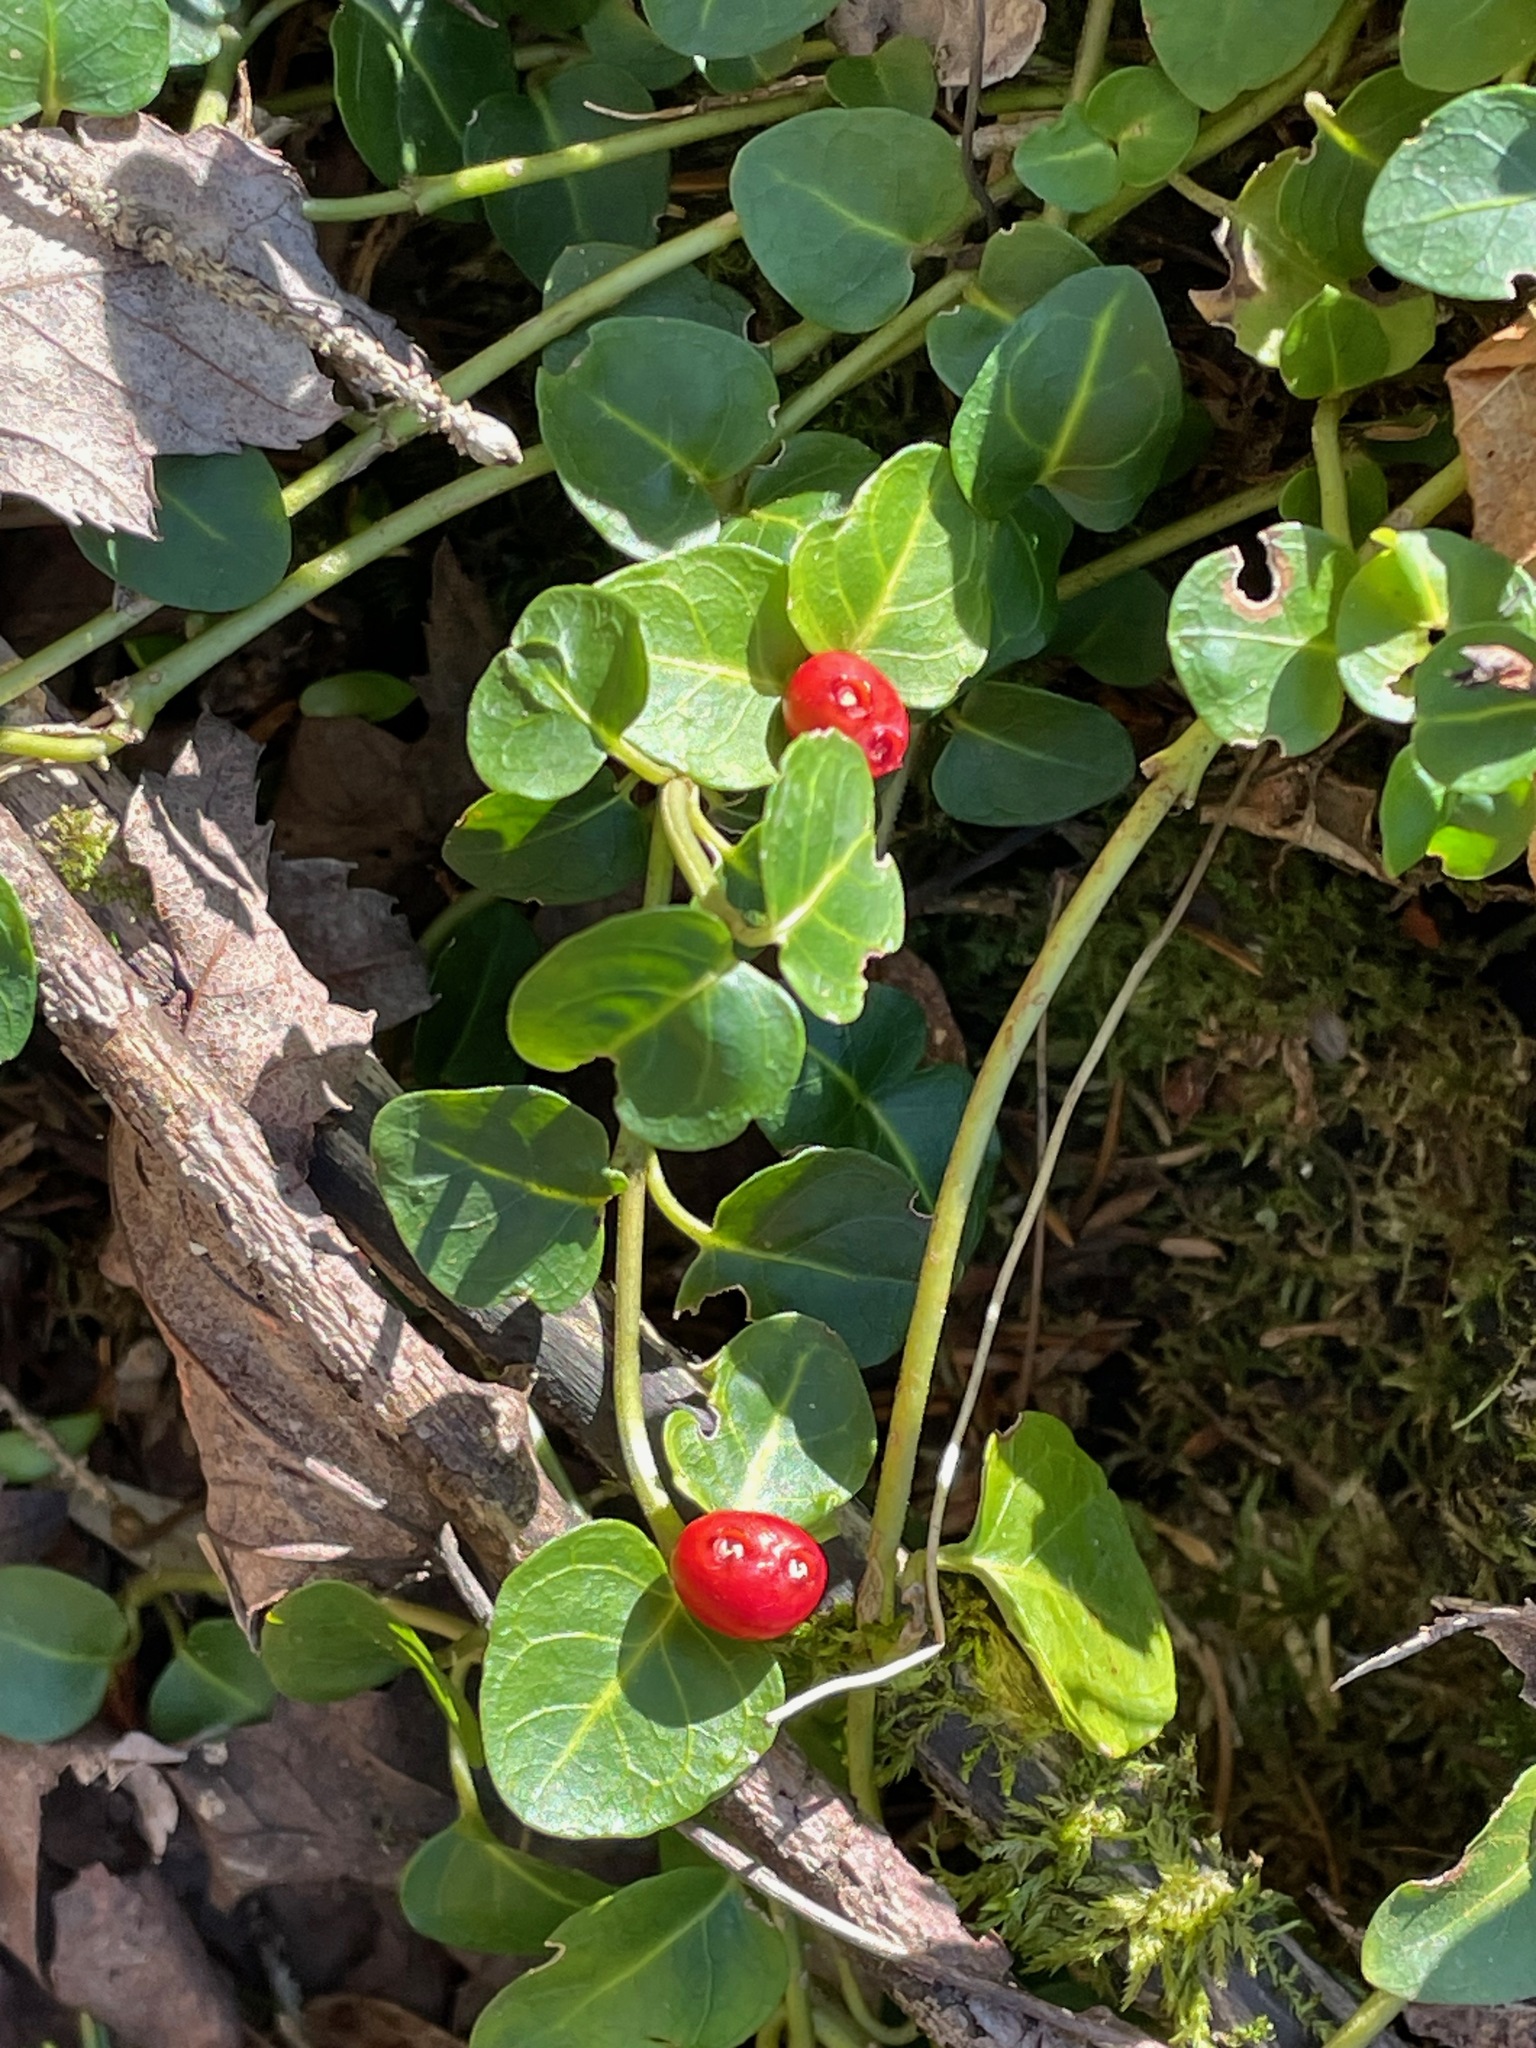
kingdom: Plantae
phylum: Tracheophyta
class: Magnoliopsida
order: Gentianales
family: Rubiaceae
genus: Mitchella
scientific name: Mitchella repens
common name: Partridge-berry
